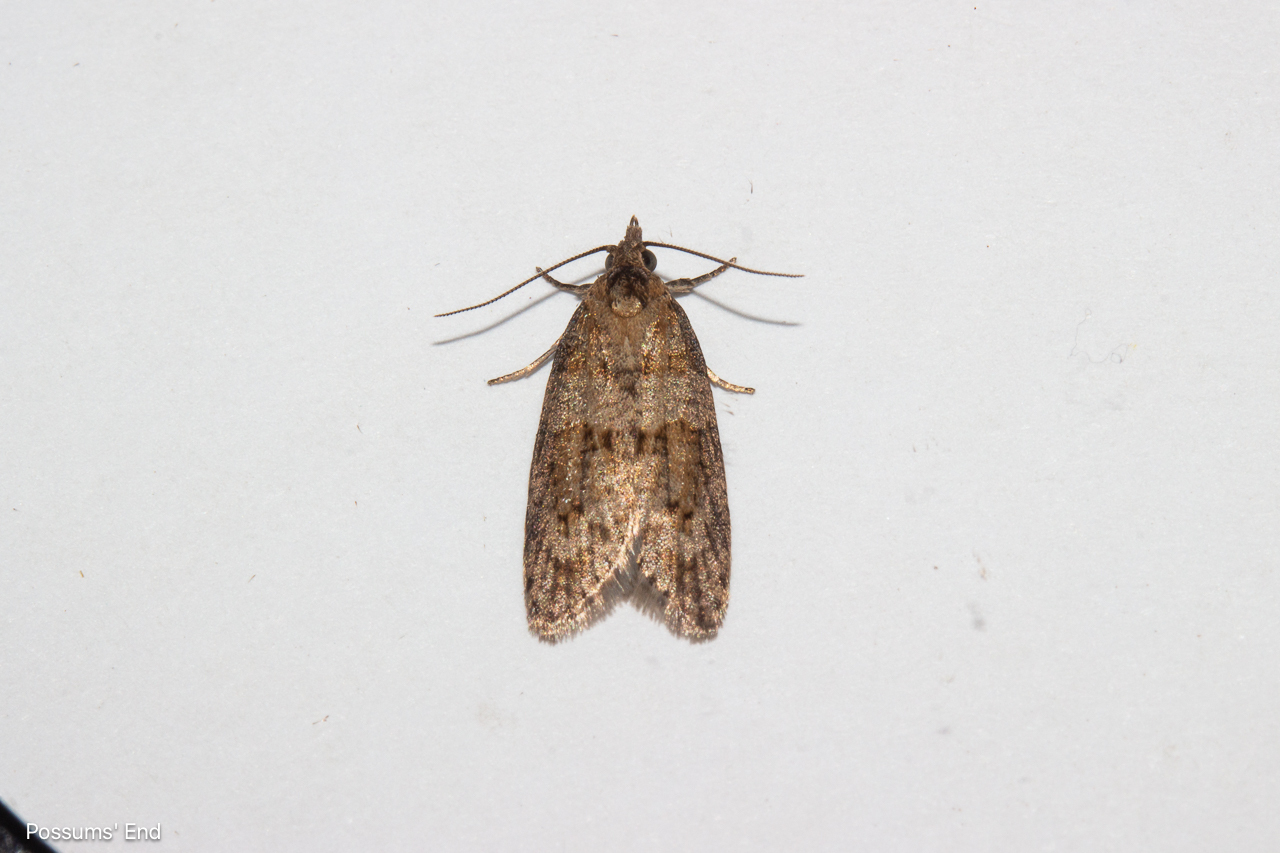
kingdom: Animalia
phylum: Arthropoda
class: Insecta
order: Lepidoptera
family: Tortricidae
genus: Prothelymna
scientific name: Prothelymna antiquana
